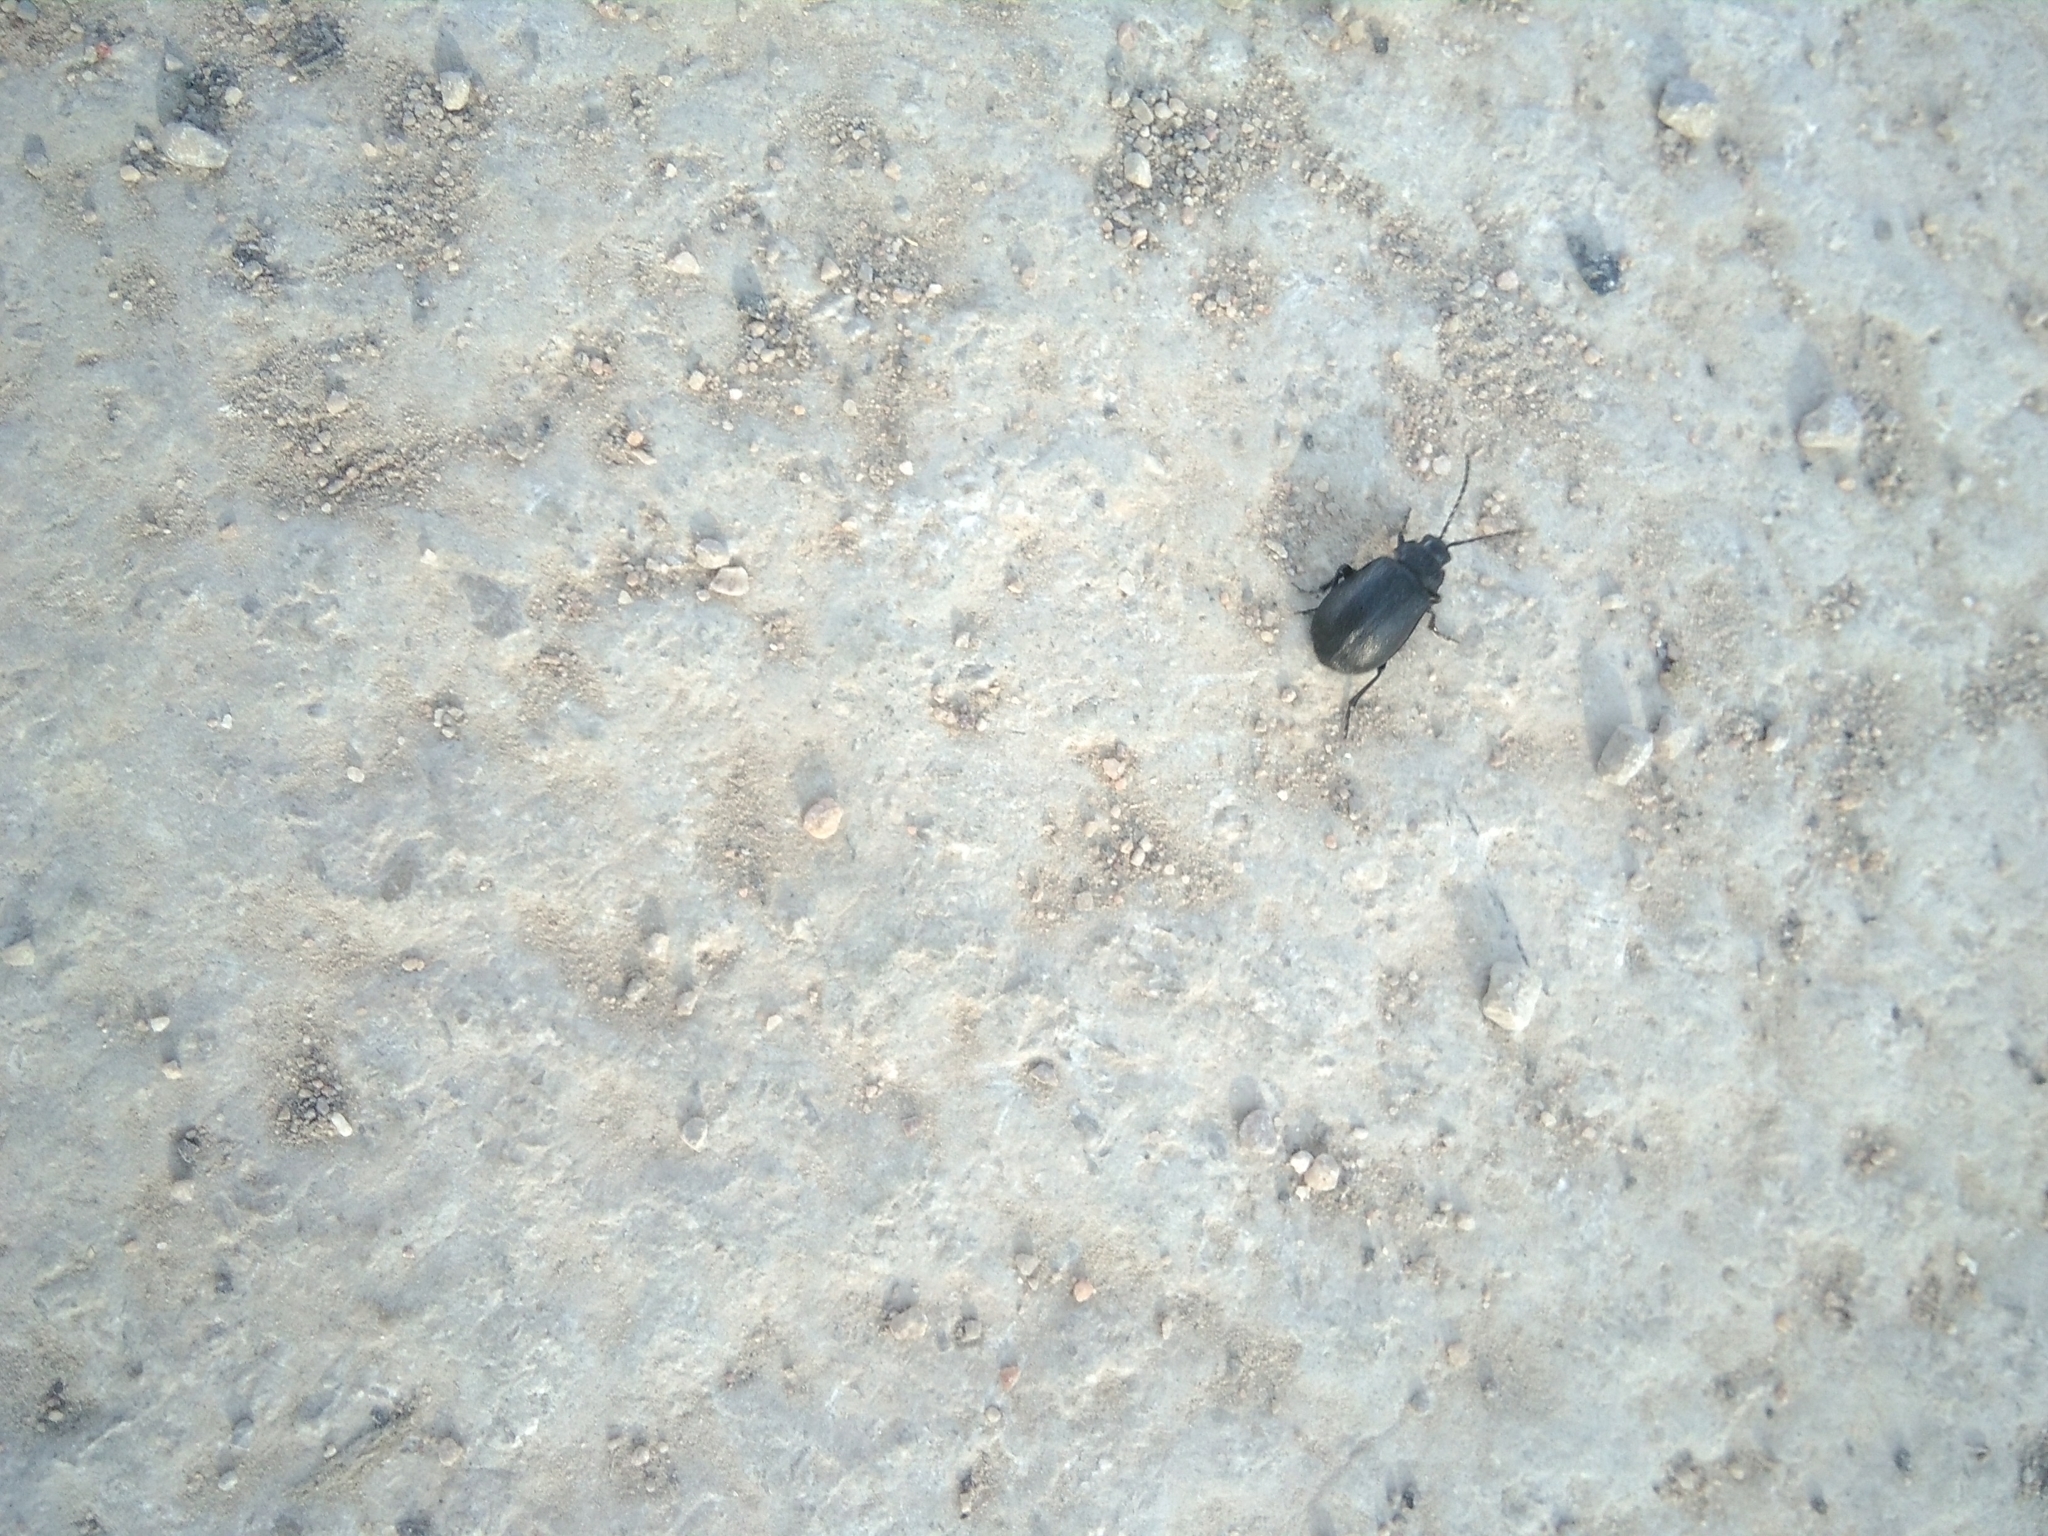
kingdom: Animalia
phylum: Arthropoda
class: Insecta
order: Coleoptera
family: Chrysomelidae
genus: Galeruca
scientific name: Galeruca tanaceti
